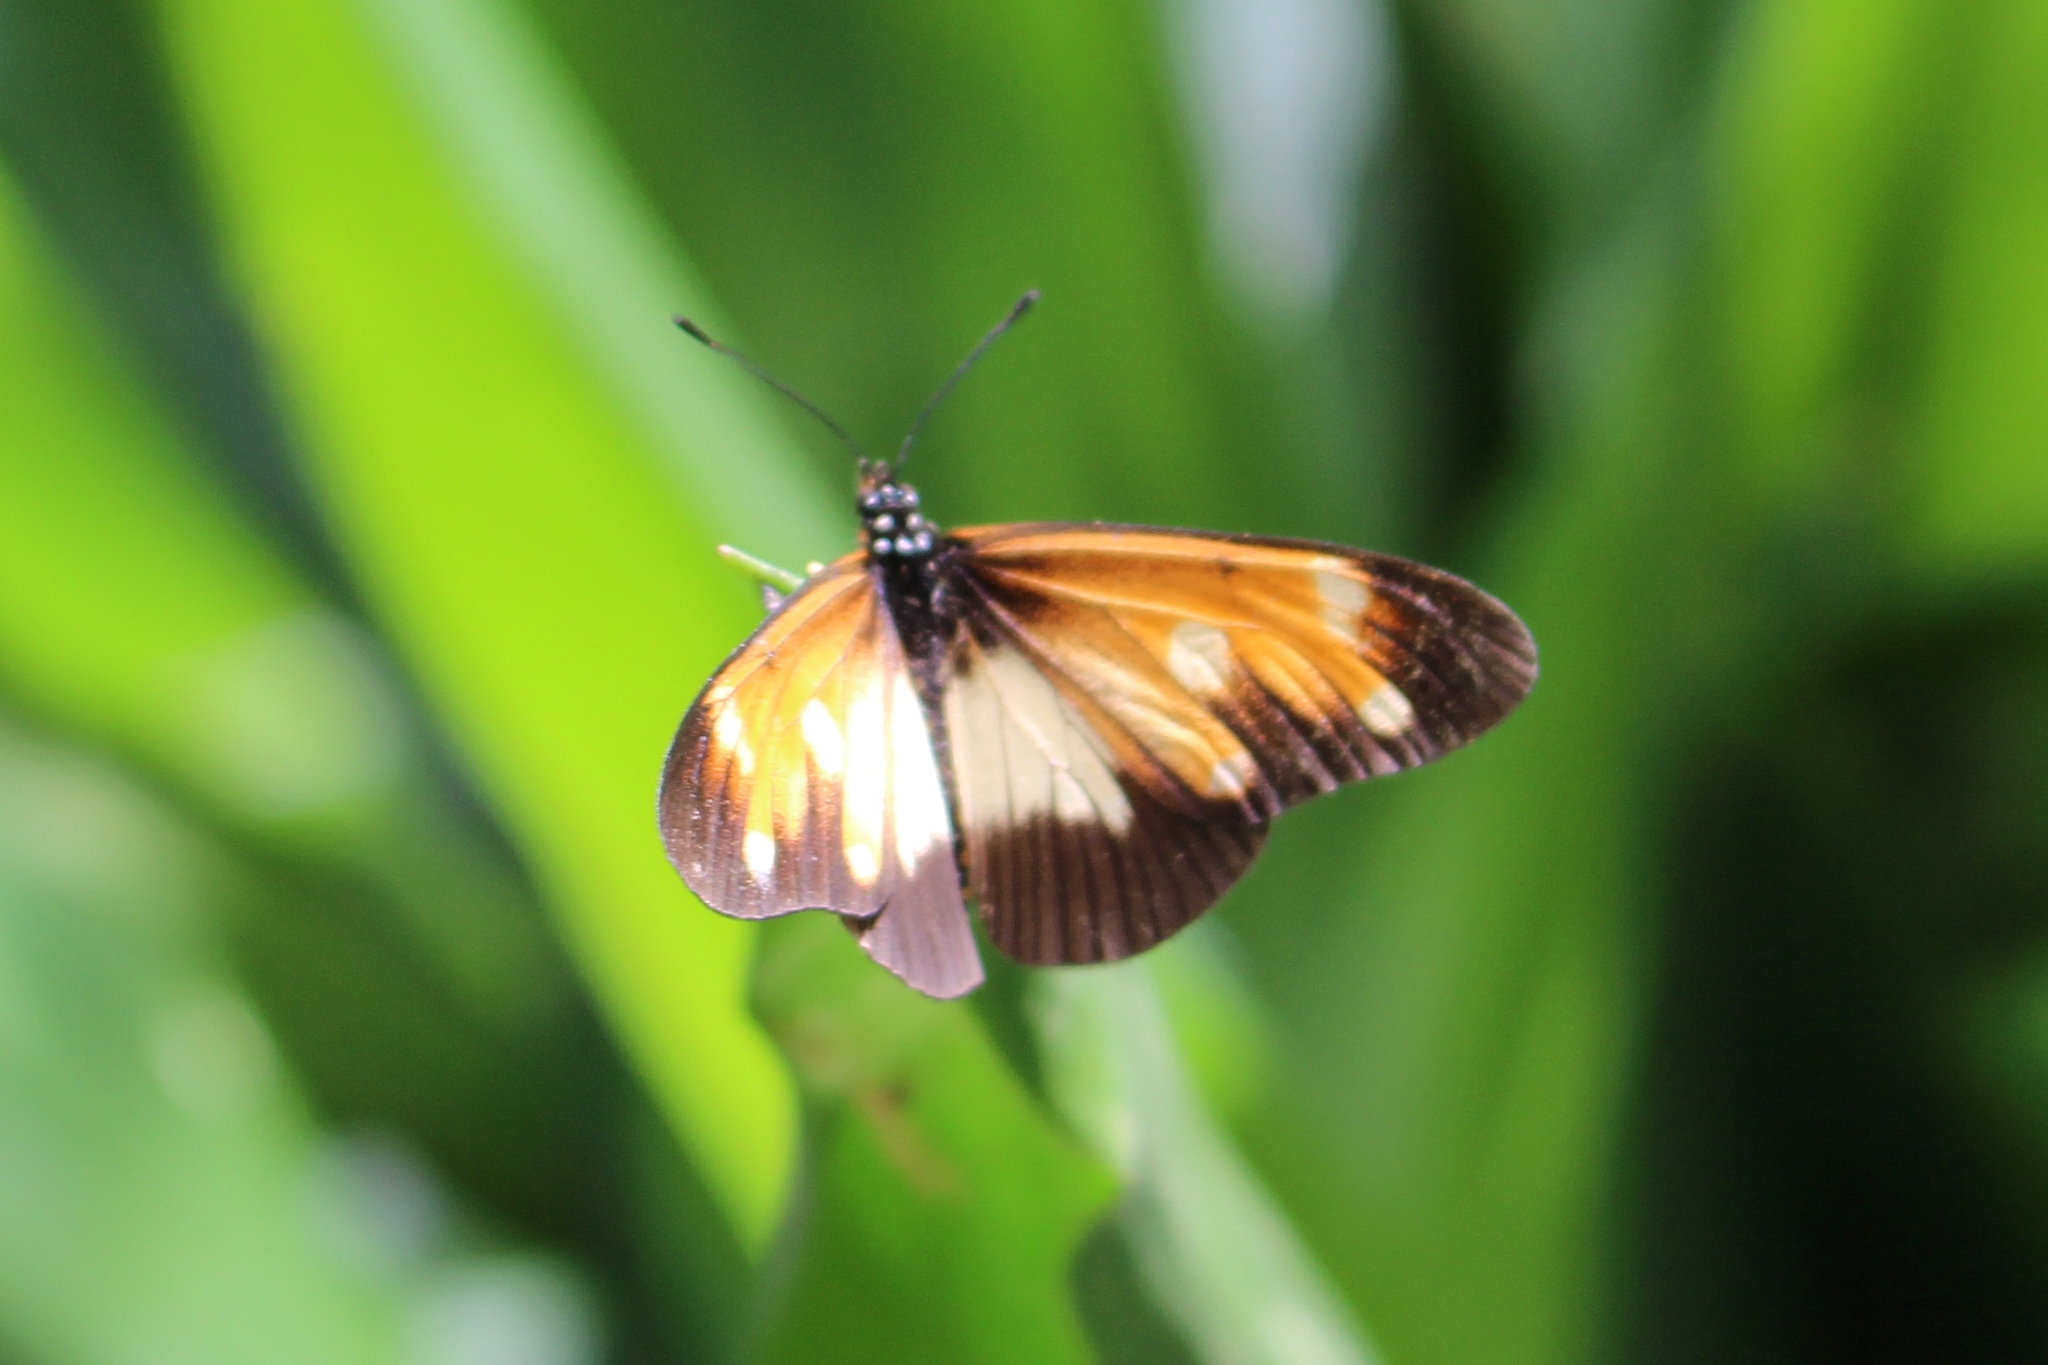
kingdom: Animalia
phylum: Arthropoda
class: Insecta
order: Lepidoptera
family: Nymphalidae
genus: Acraea
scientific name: Acraea
